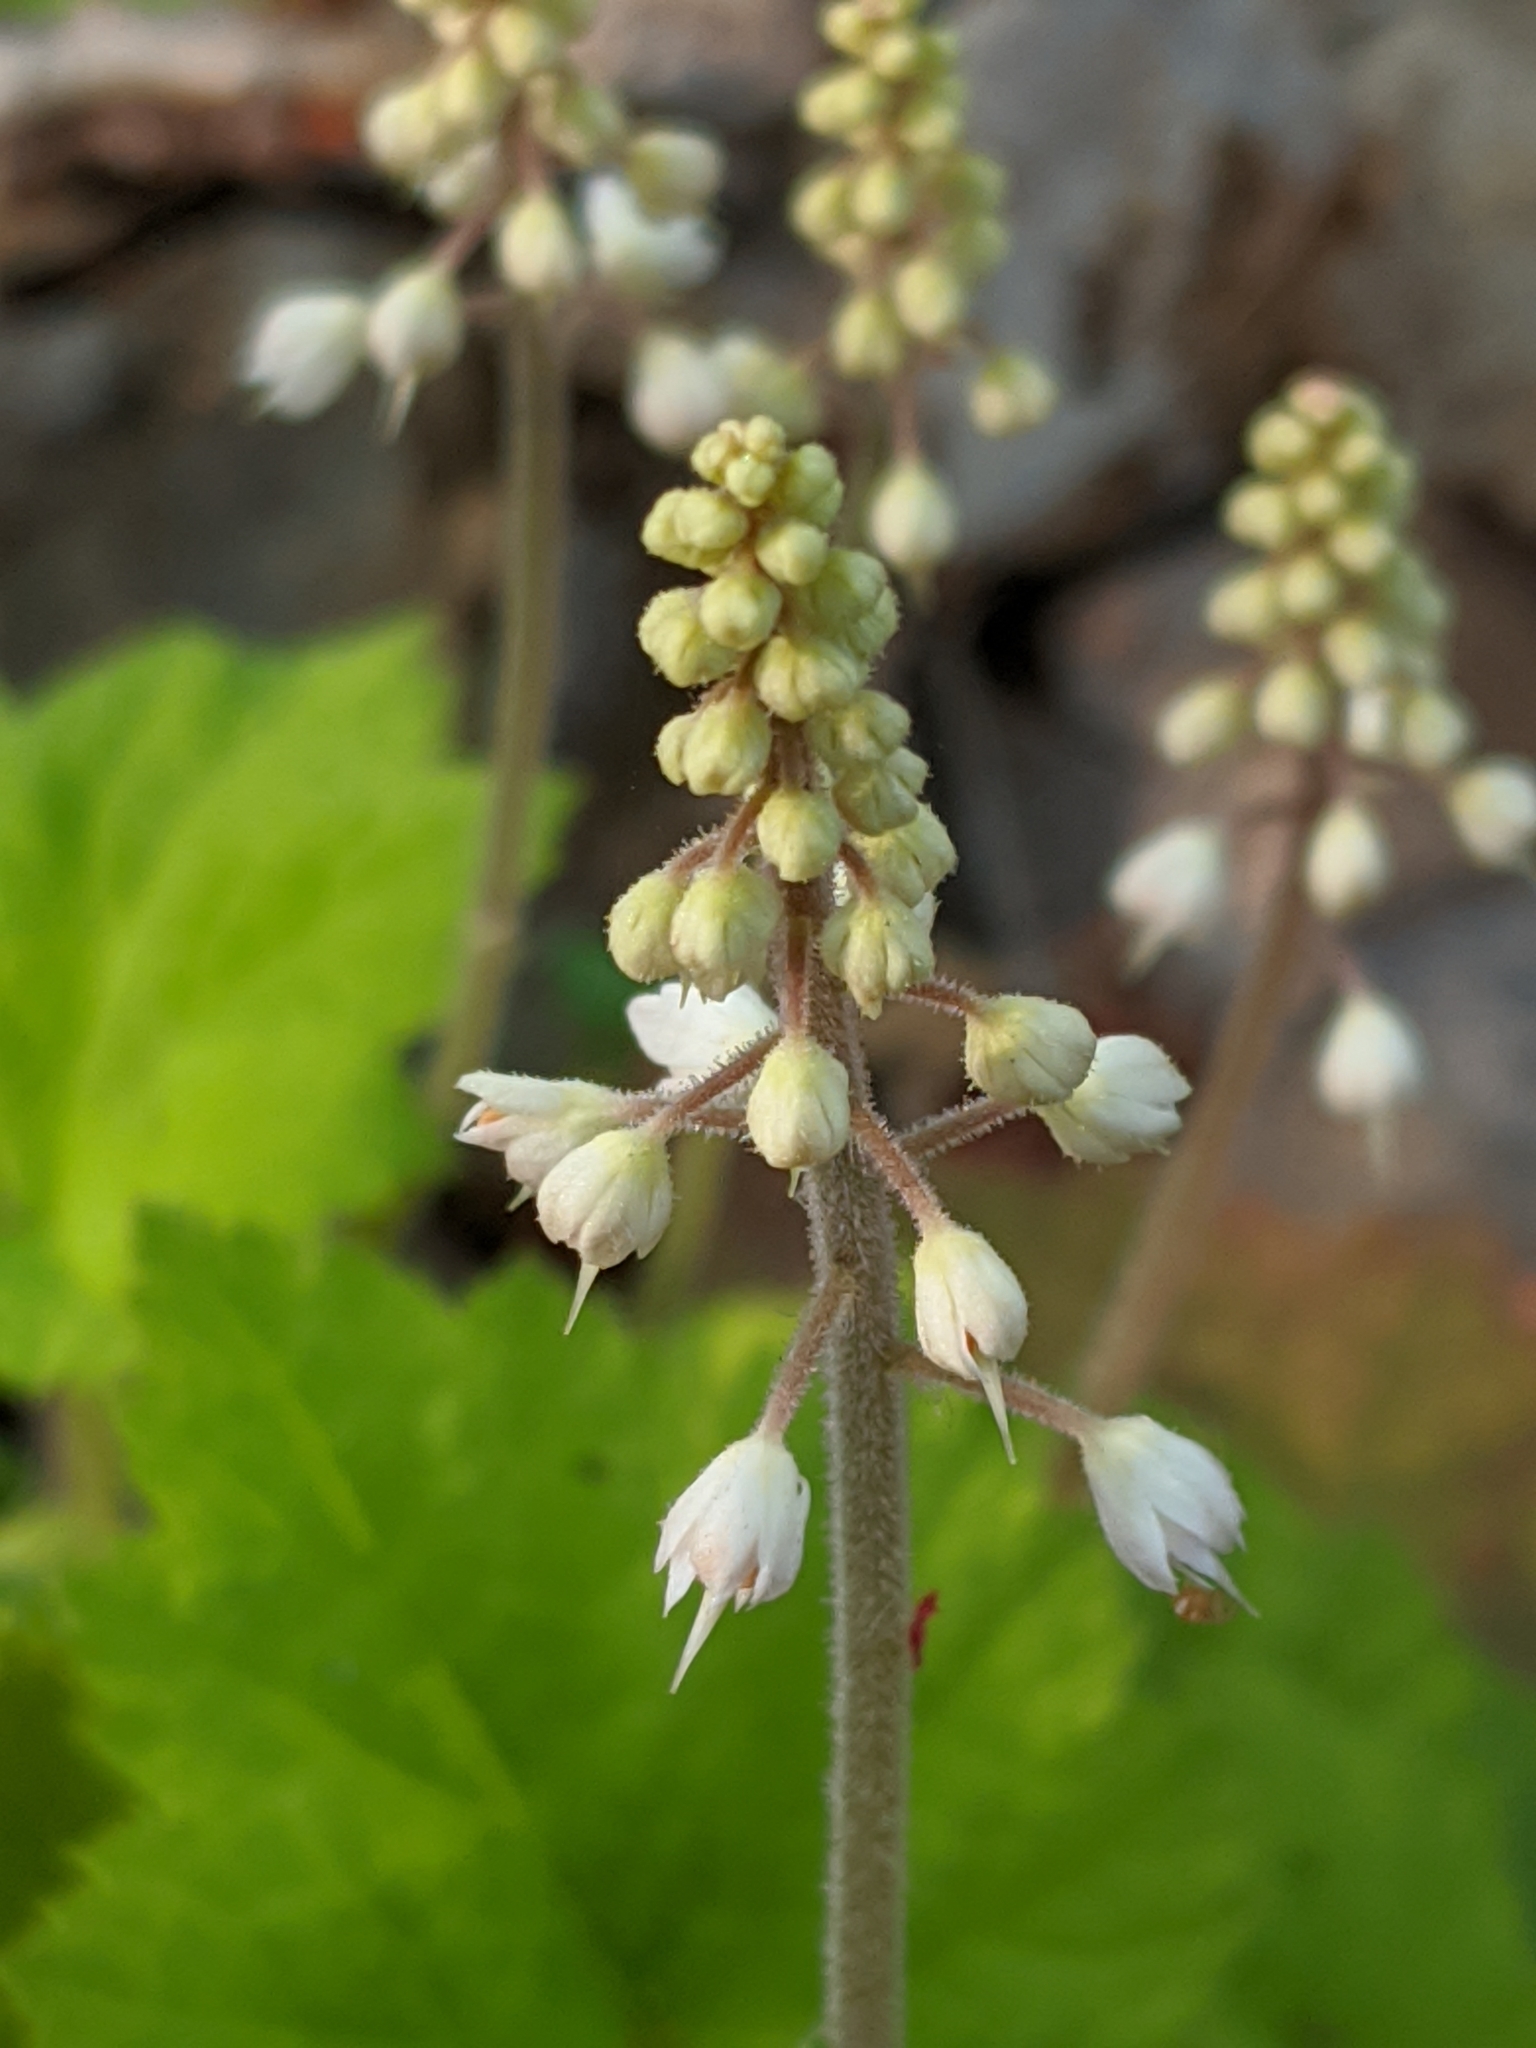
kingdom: Plantae
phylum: Tracheophyta
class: Magnoliopsida
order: Saxifragales
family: Saxifragaceae
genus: Tiarella
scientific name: Tiarella stolonifera
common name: Stoloniferous foamflower
